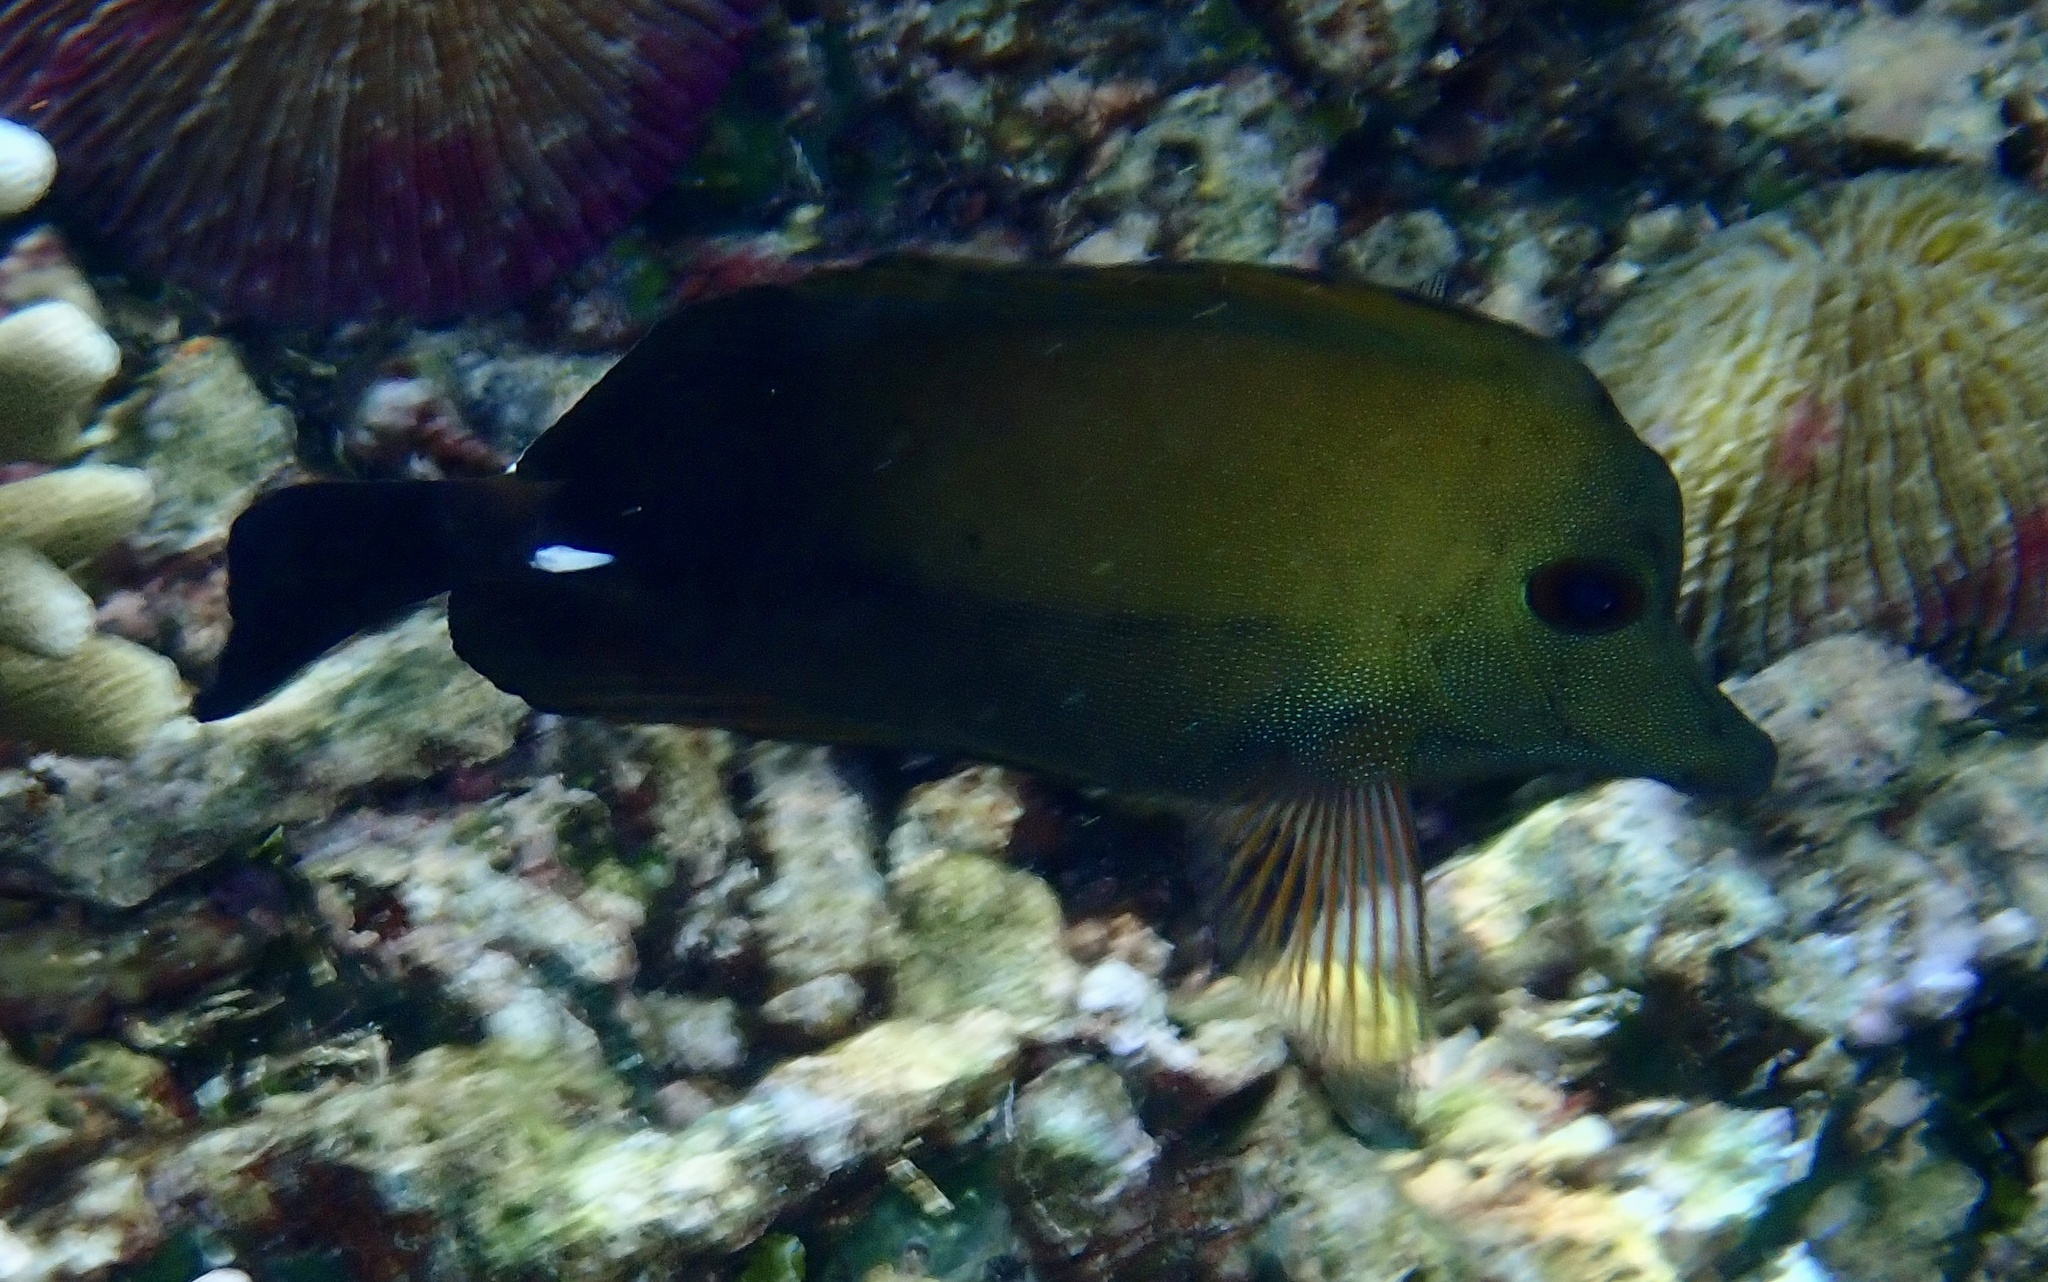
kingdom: Animalia
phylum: Chordata
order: Perciformes
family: Acanthuridae
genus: Zebrasoma
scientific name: Zebrasoma scopas
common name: Twotone tang
